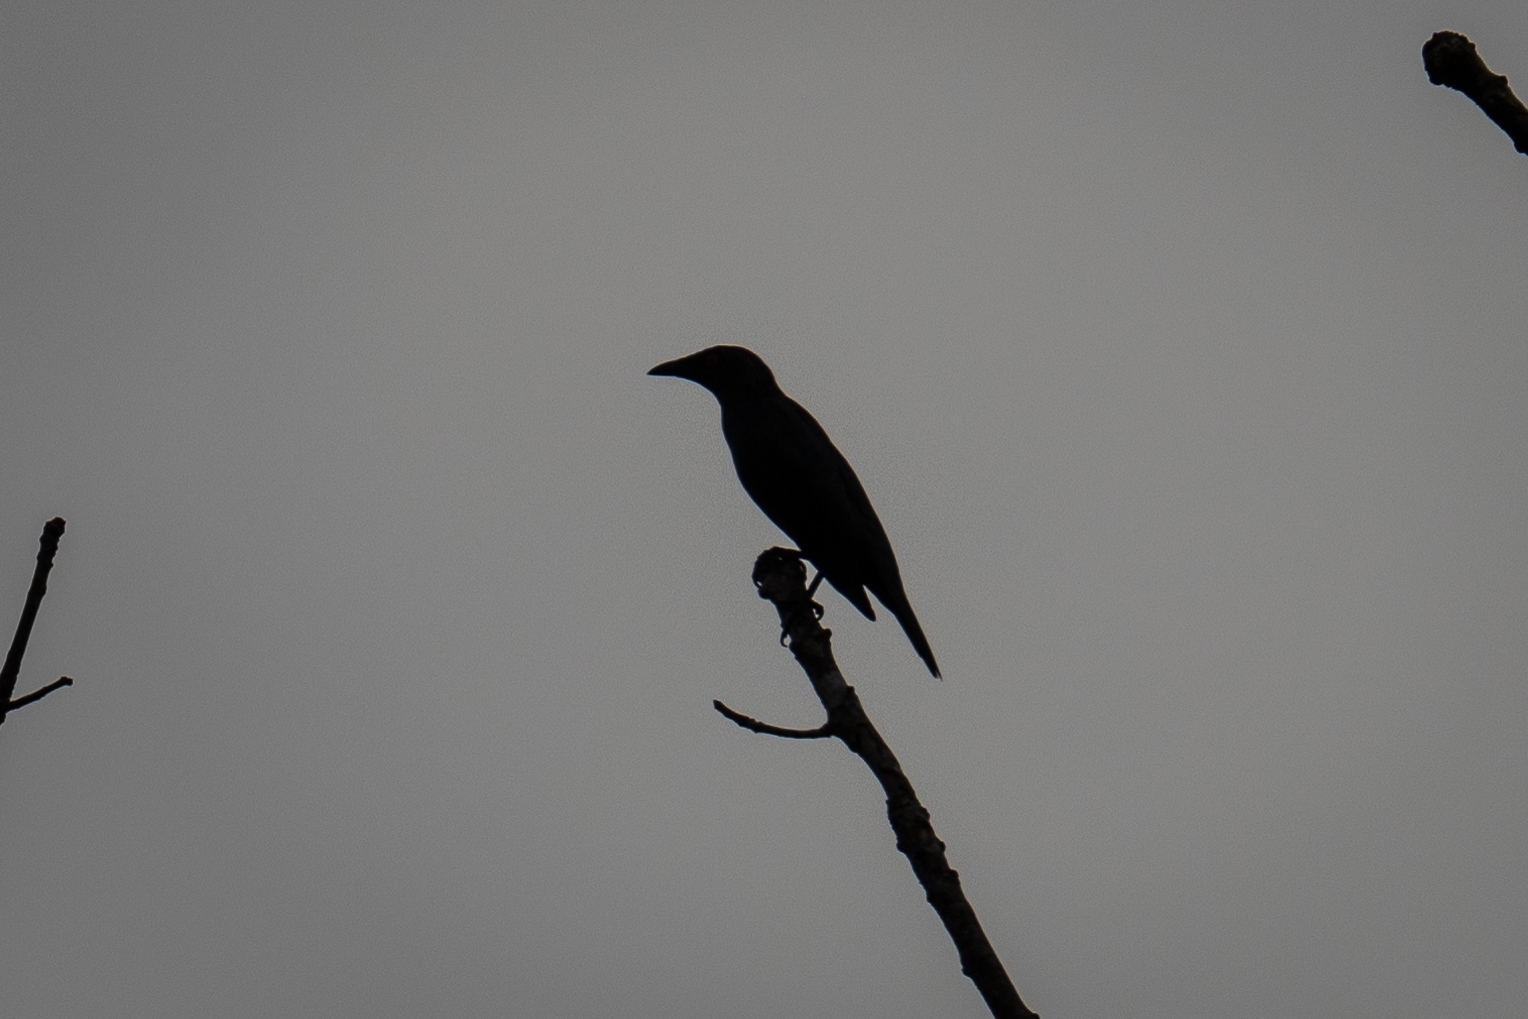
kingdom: Animalia
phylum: Chordata
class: Aves
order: Passeriformes
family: Sturnidae
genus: Aplonis
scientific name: Aplonis panayensis
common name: Asian glossy starling
